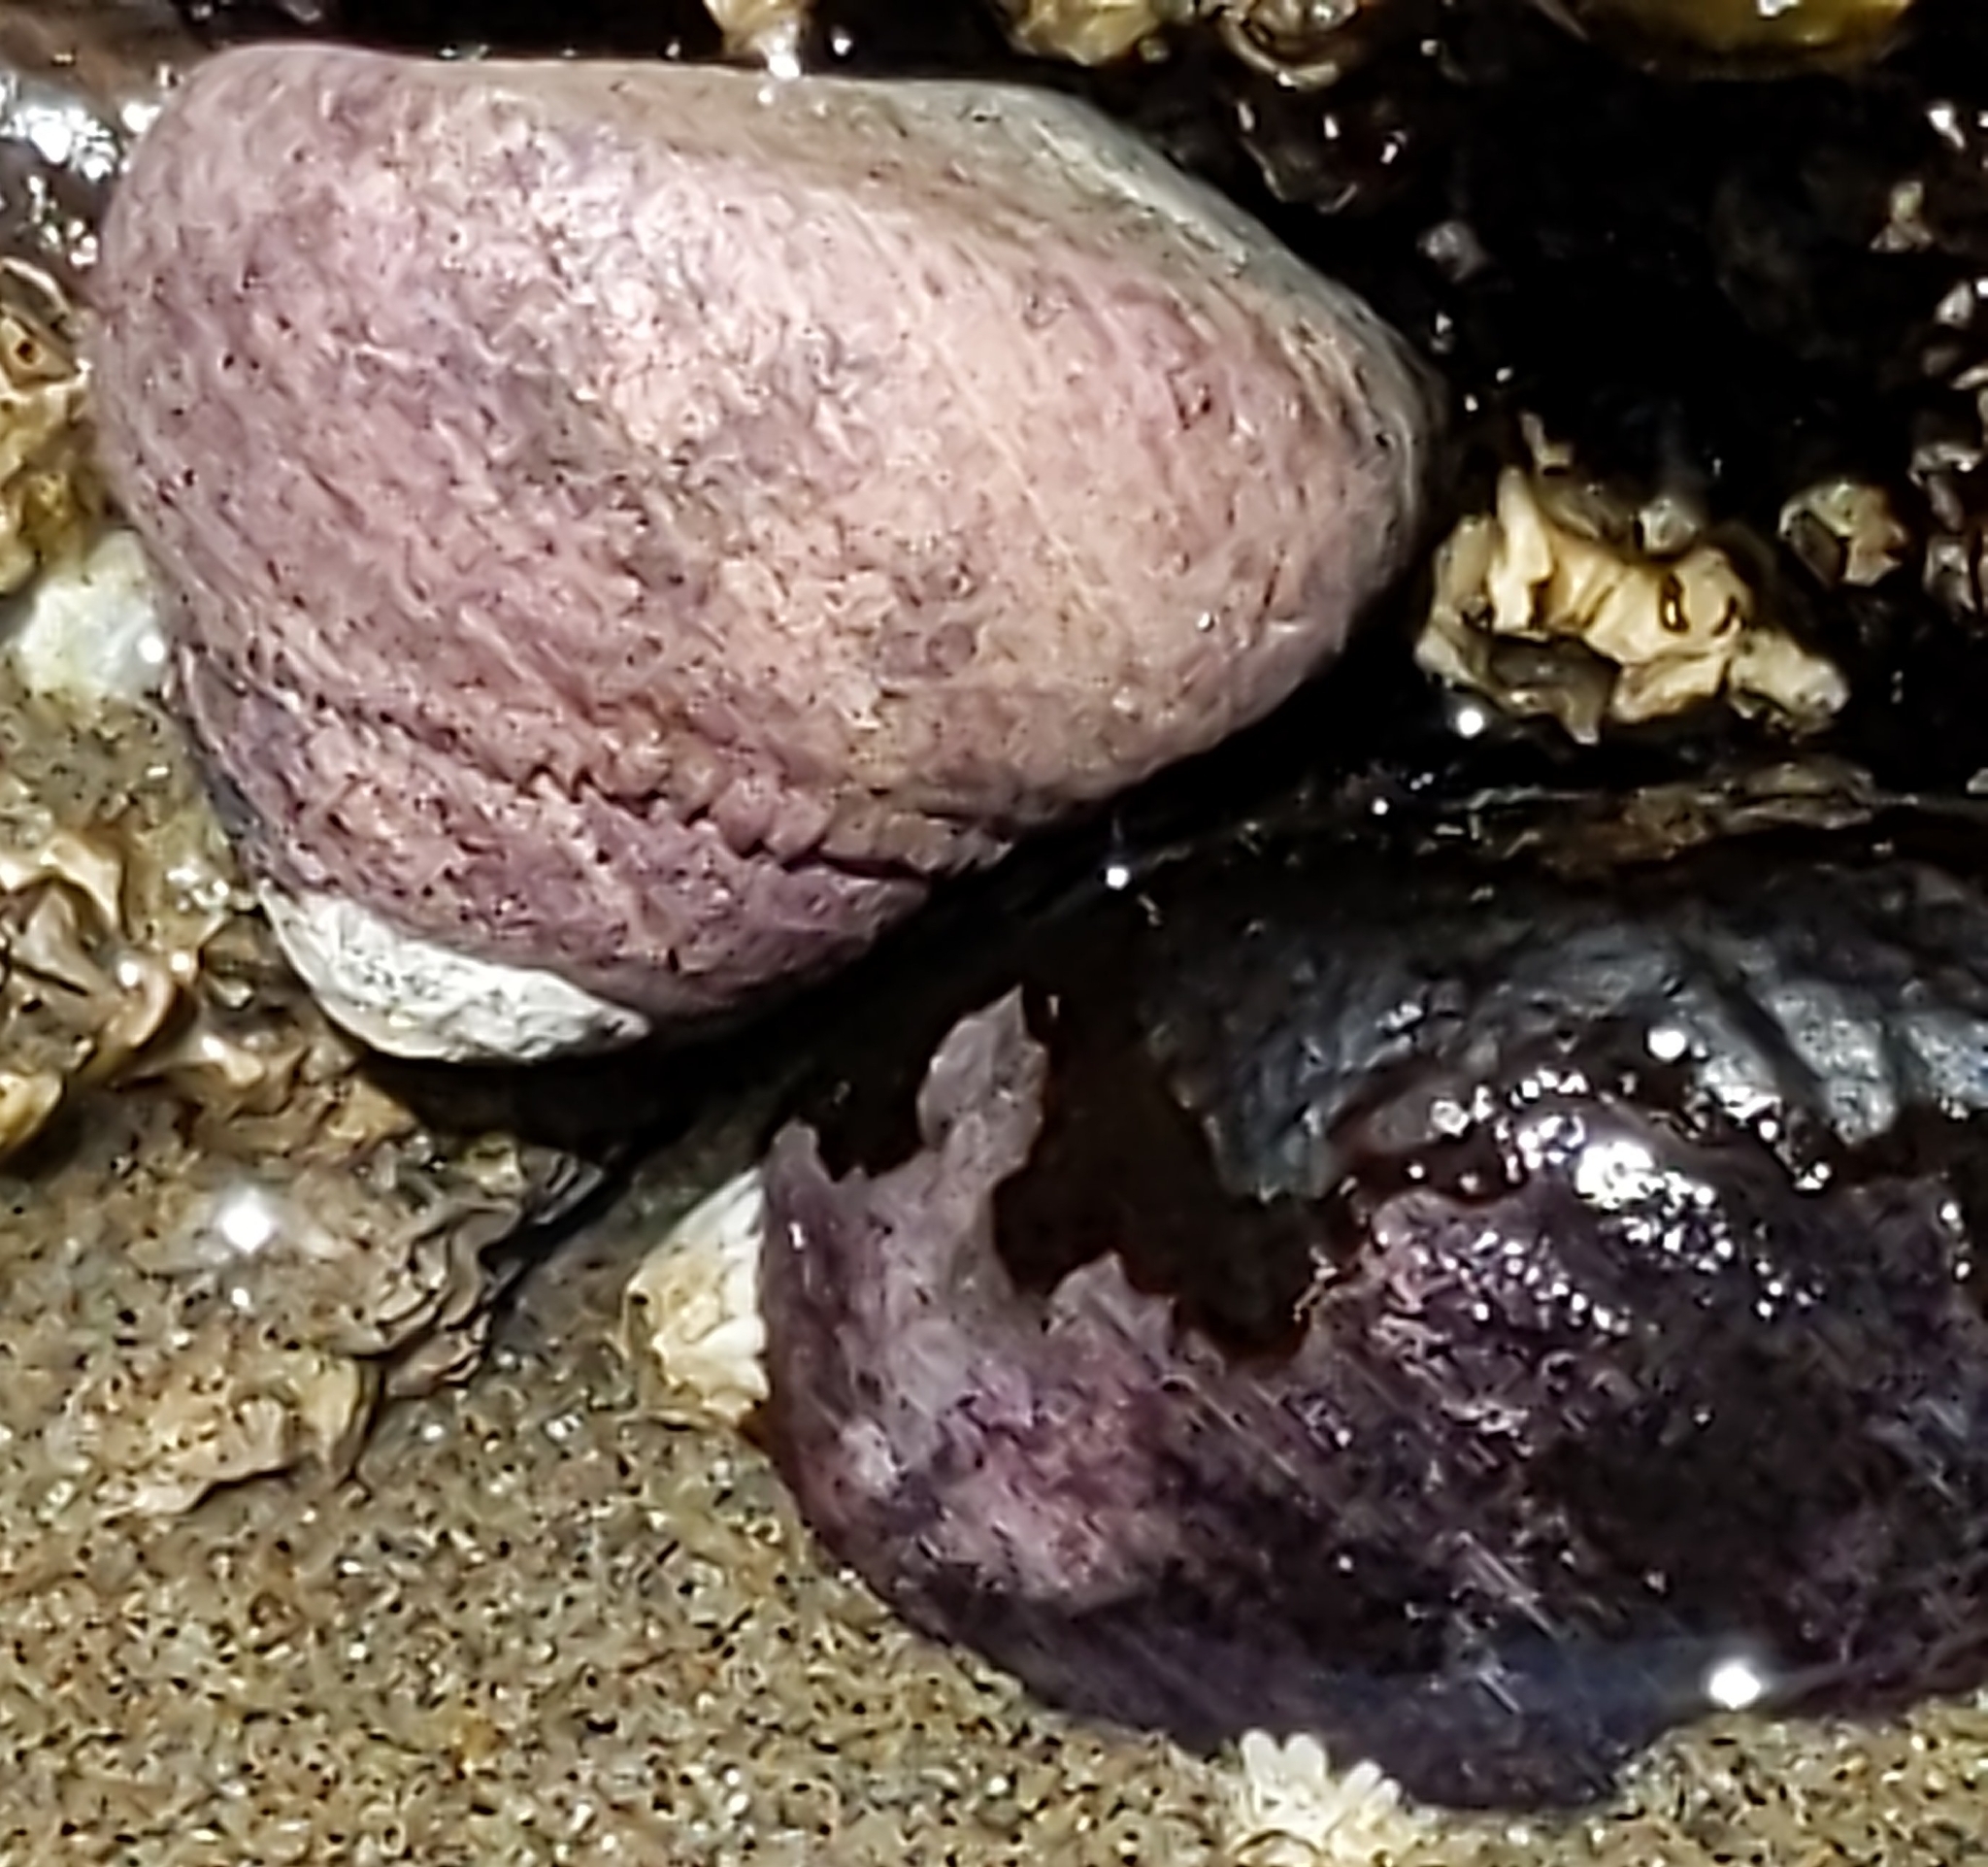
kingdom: Animalia
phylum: Mollusca
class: Gastropoda
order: Trochida
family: Tegulidae
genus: Tegula
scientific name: Tegula funebralis
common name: Black tegula
